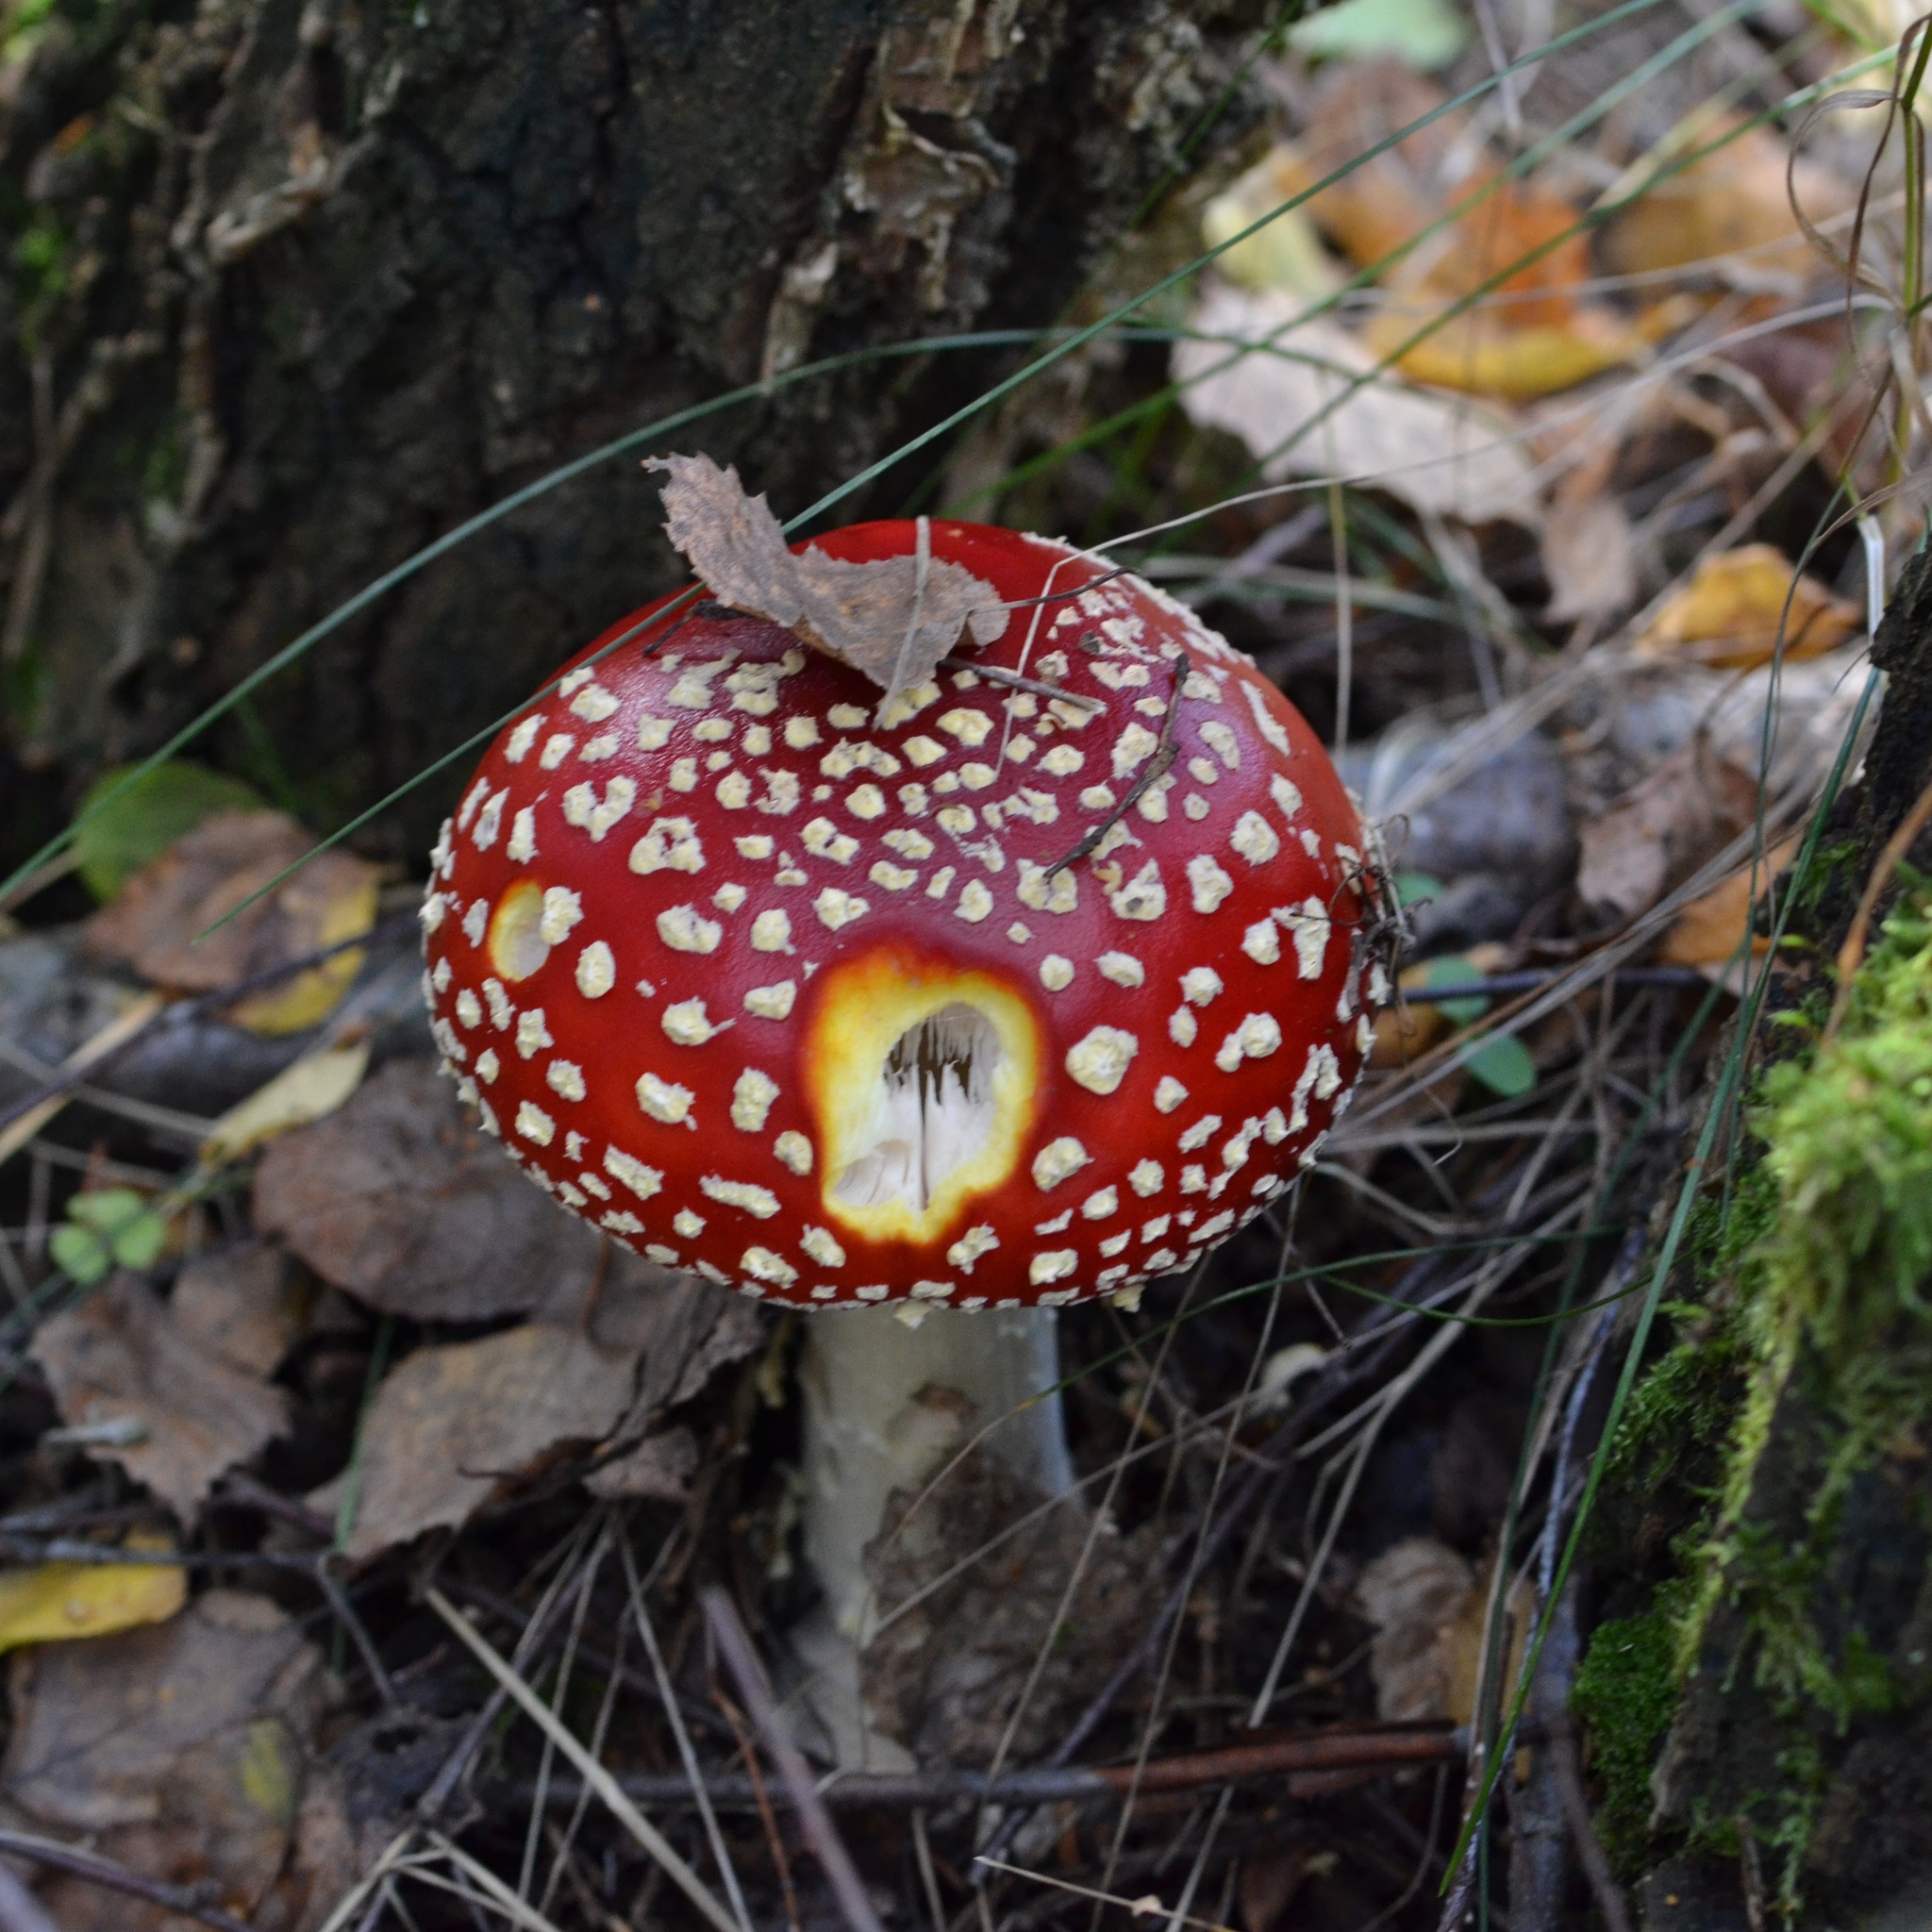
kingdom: Fungi
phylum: Basidiomycota
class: Agaricomycetes
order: Agaricales
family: Amanitaceae
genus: Amanita
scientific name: Amanita muscaria
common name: Fly agaric
